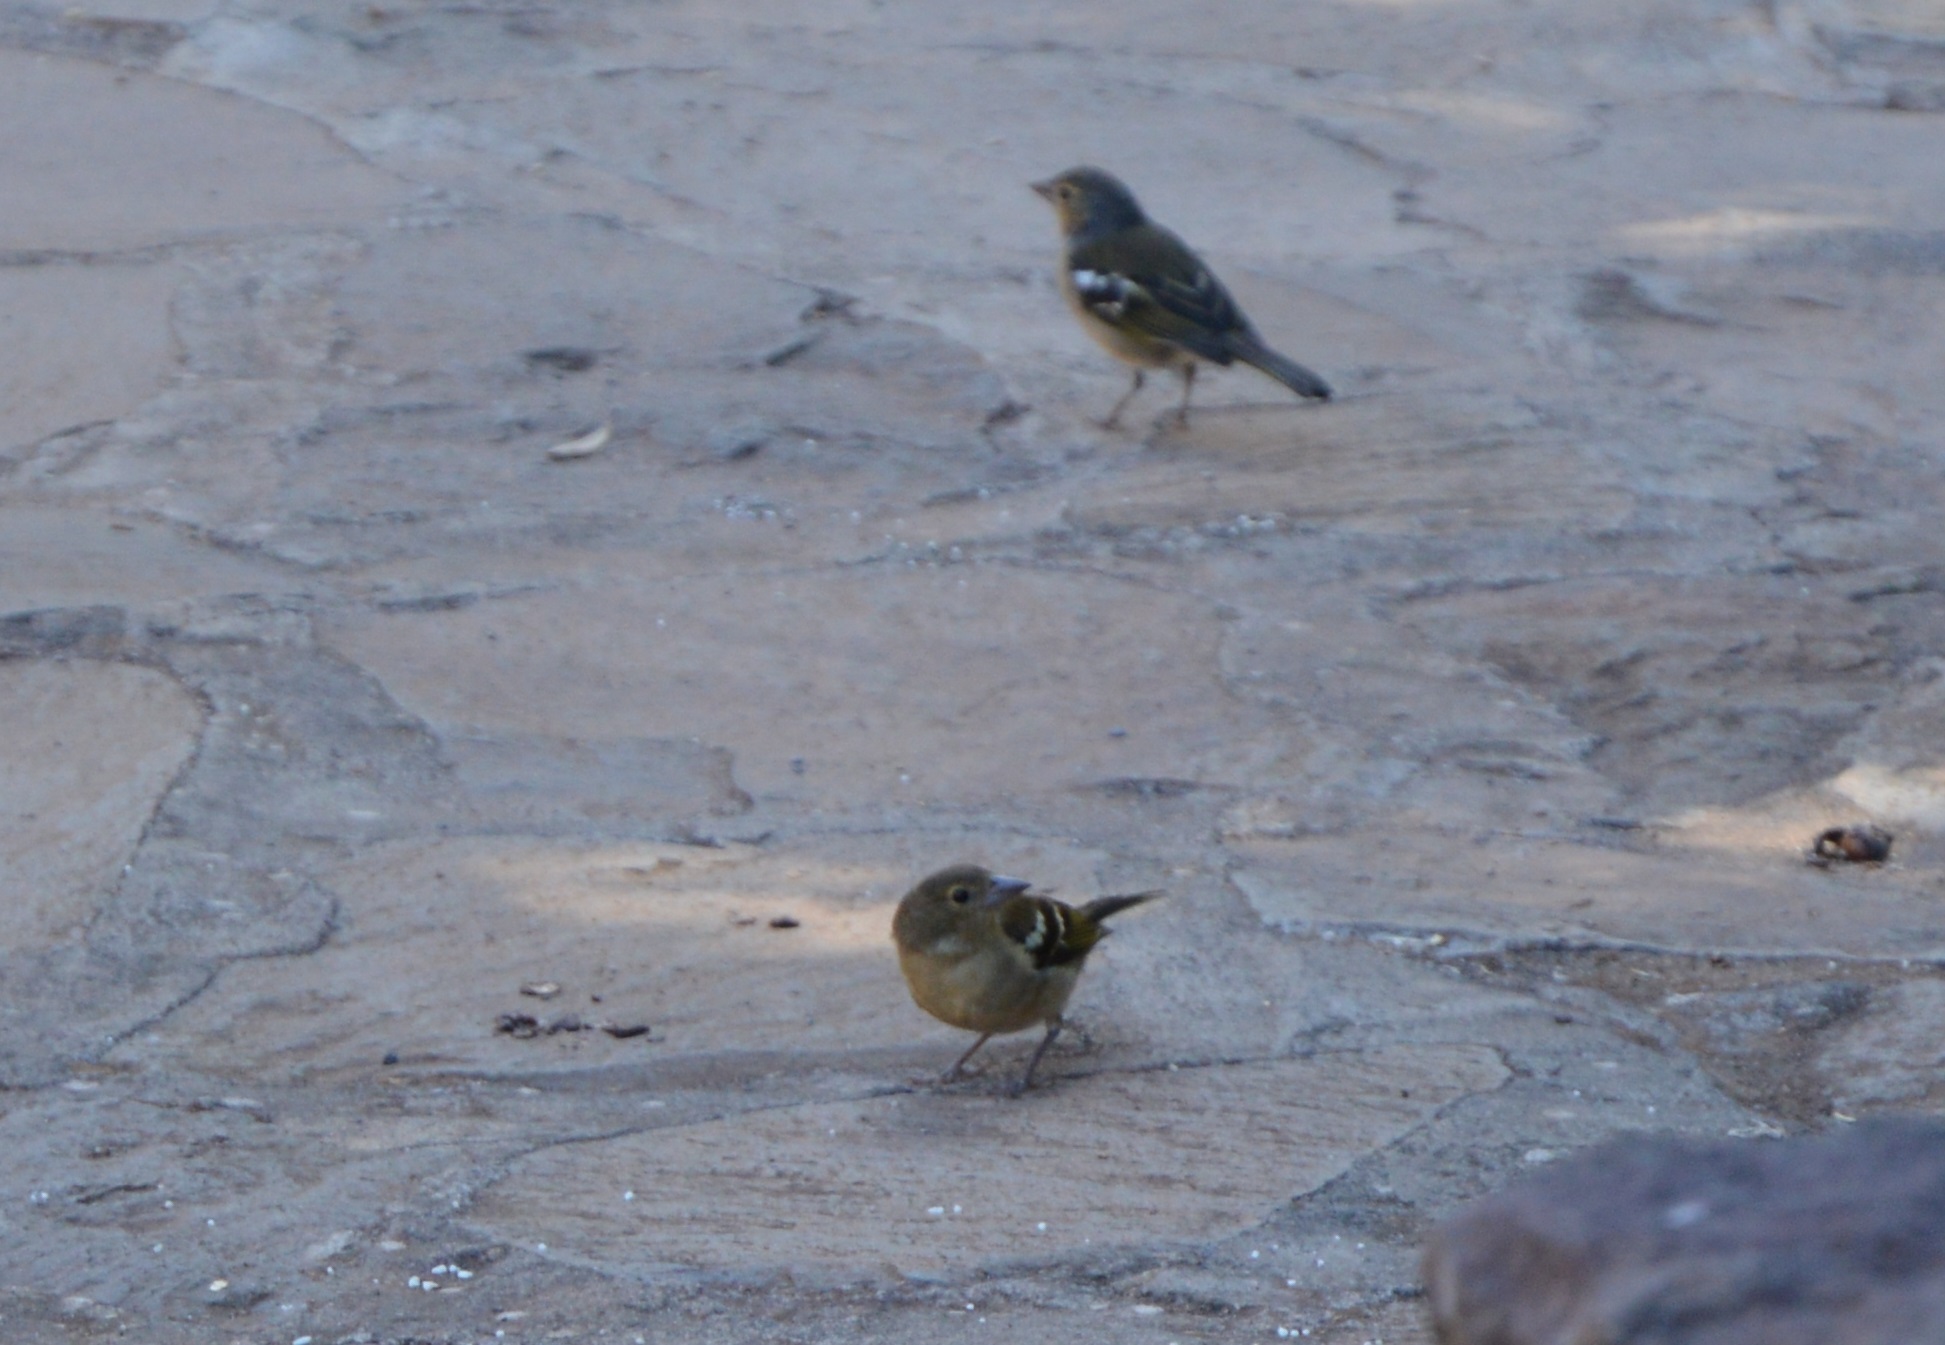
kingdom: Animalia
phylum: Chordata
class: Aves
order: Passeriformes
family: Fringillidae
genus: Fringilla
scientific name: Fringilla canariensis
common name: Canary islands chaffinch
